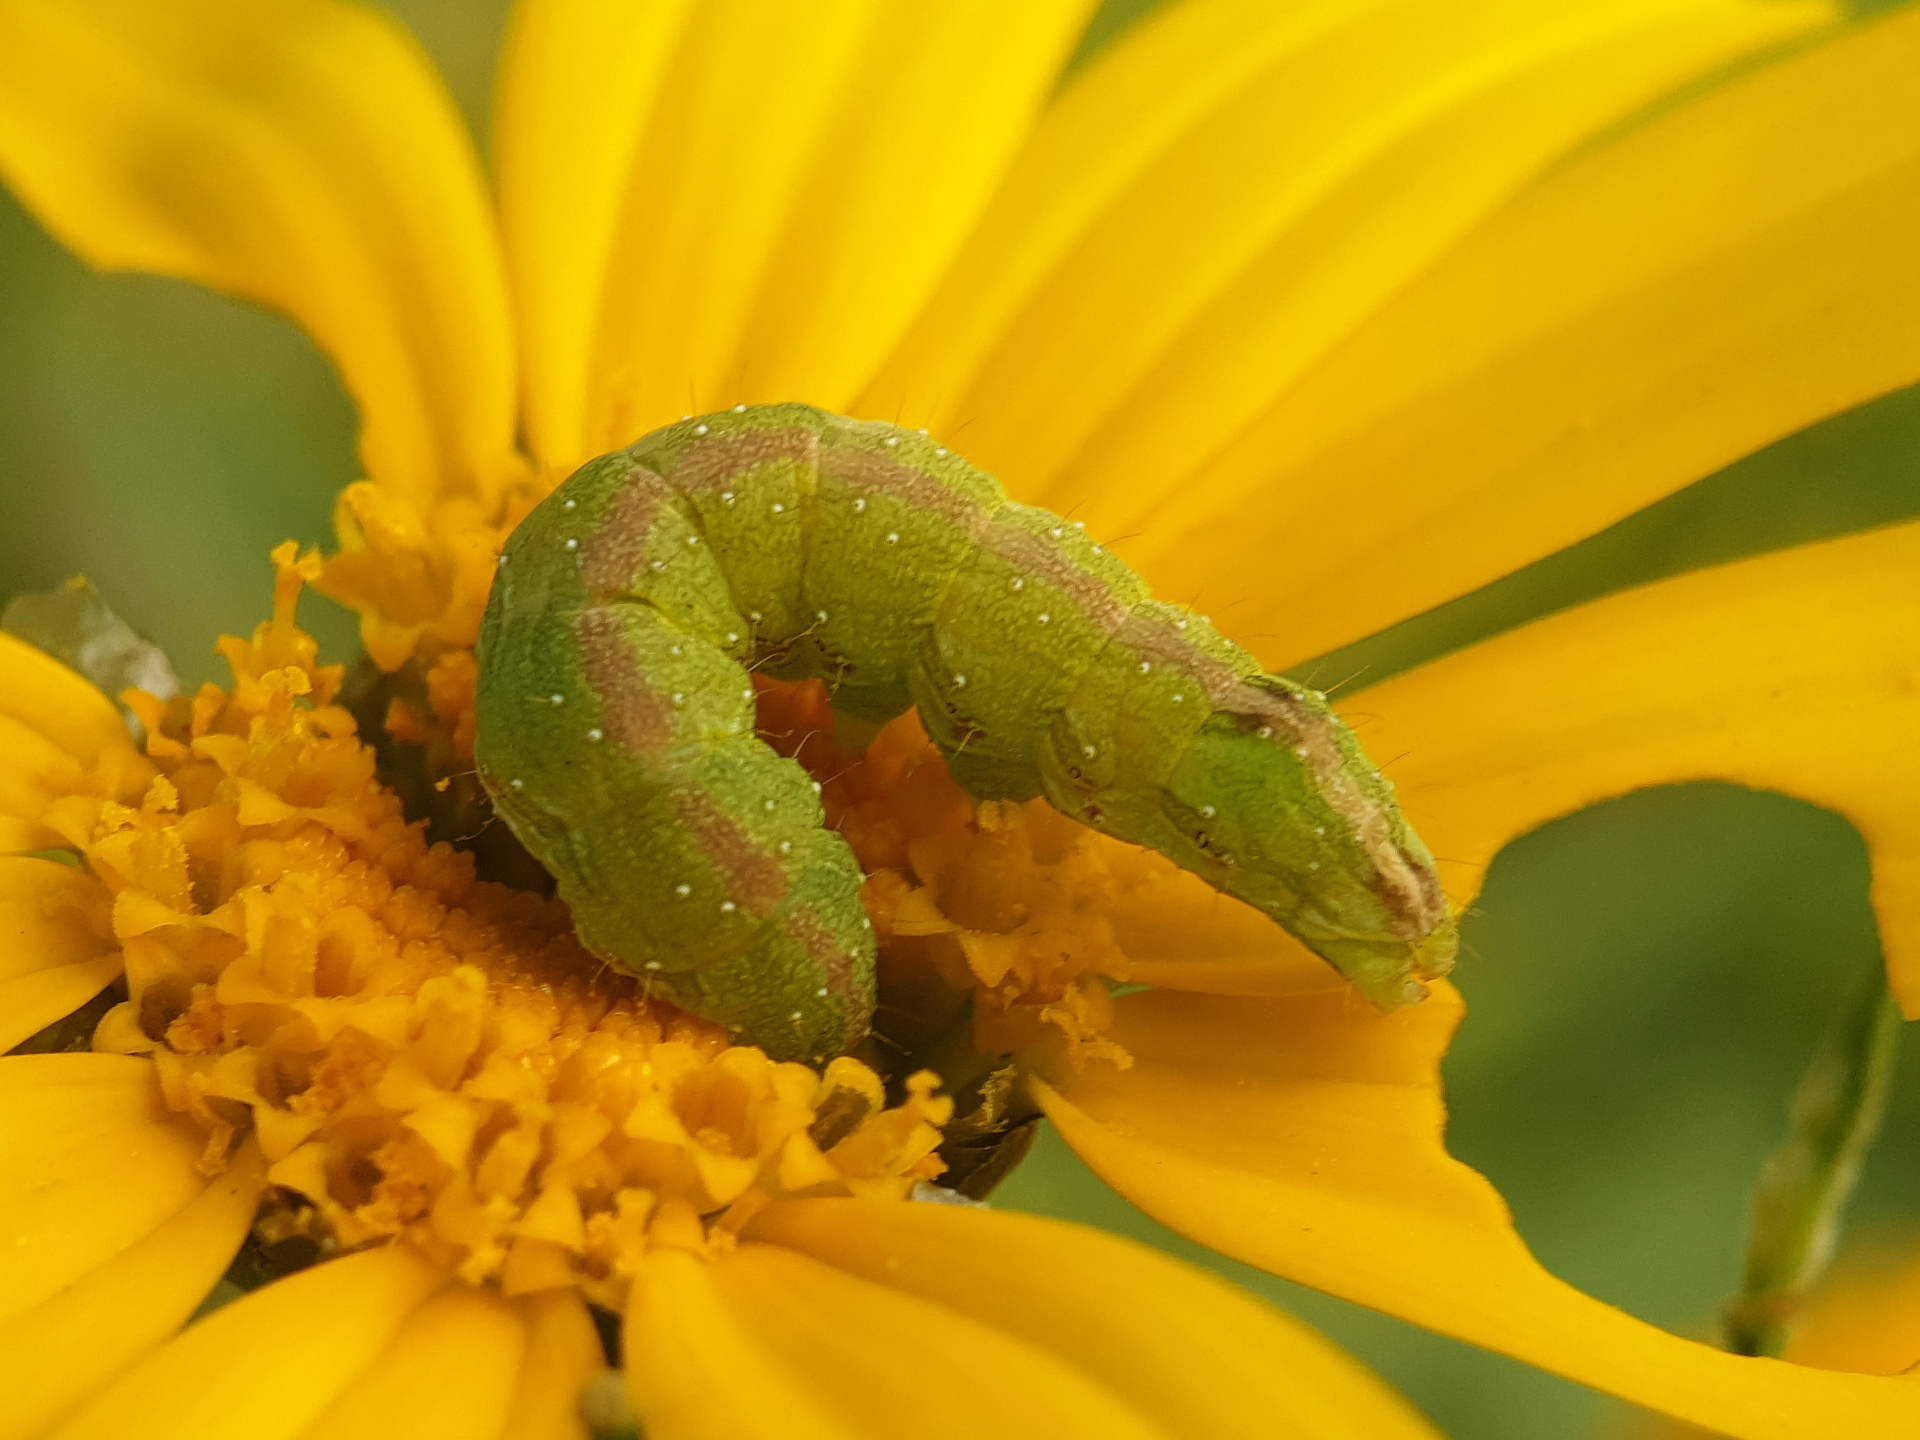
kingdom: Animalia
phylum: Arthropoda
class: Insecta
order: Lepidoptera
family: Noctuidae
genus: Cucullia
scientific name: Cucullia calendulae
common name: Marigold shark
